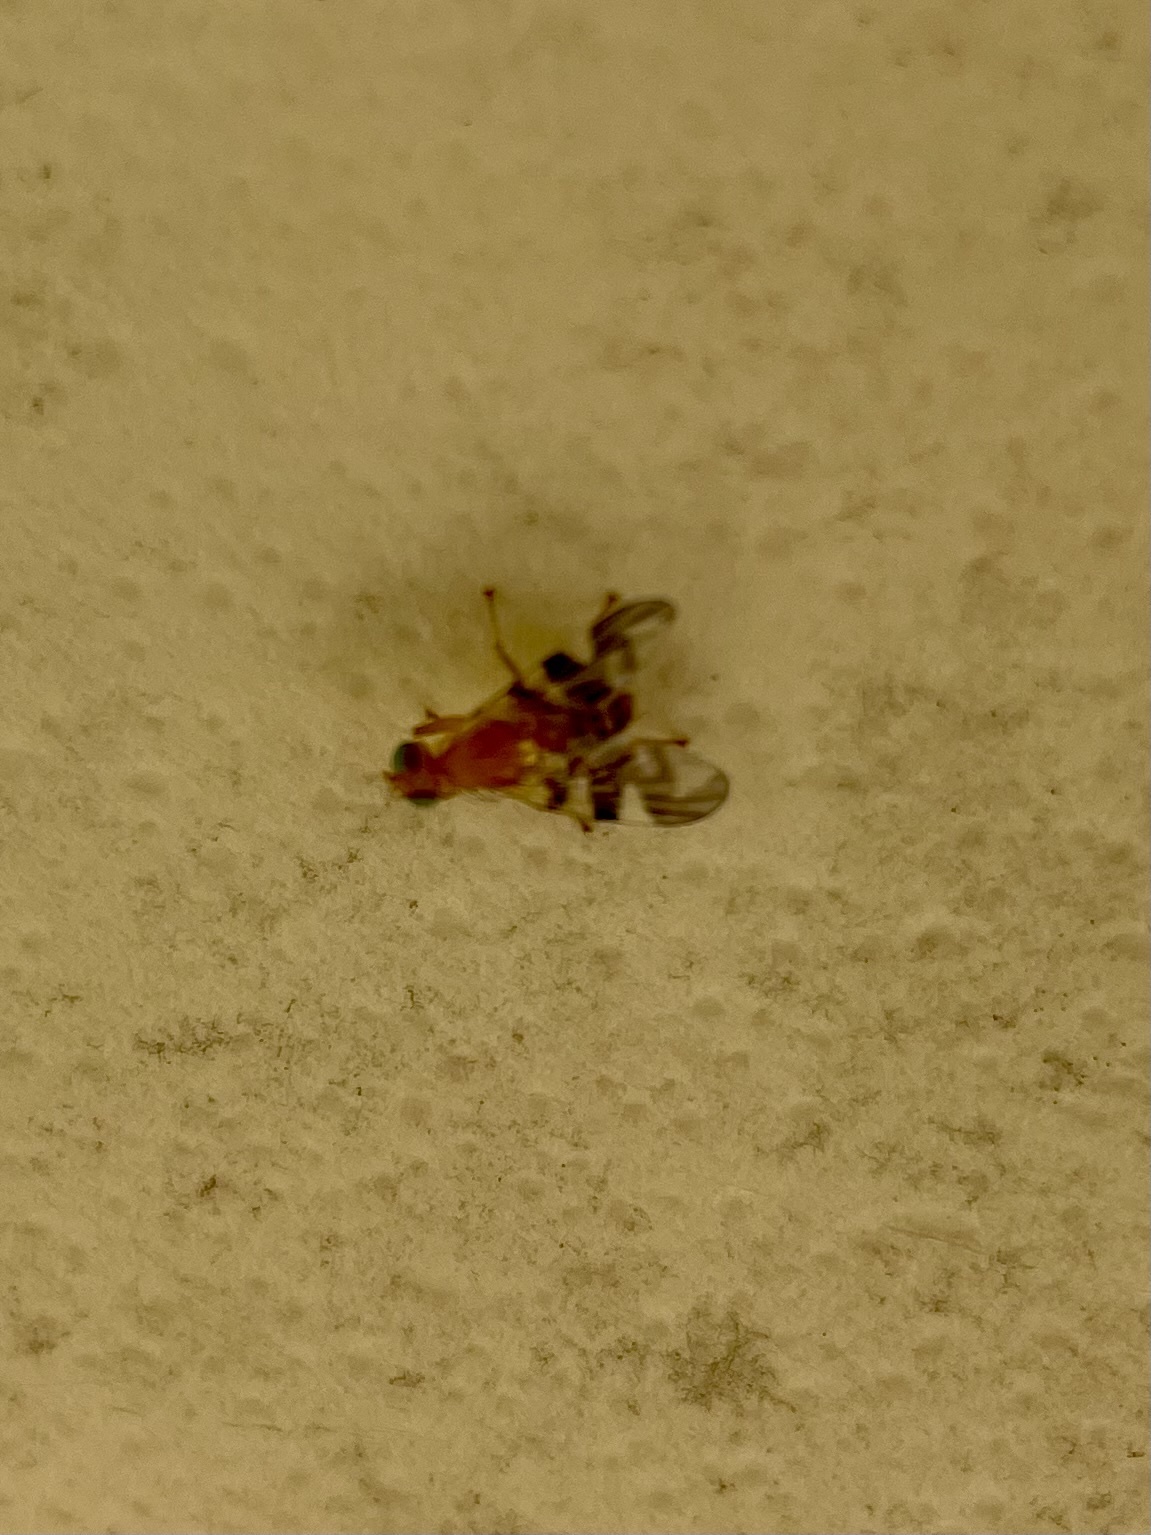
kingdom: Animalia
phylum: Arthropoda
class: Insecta
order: Diptera
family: Tephritidae
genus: Rhagoletis
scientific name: Rhagoletis suavis
